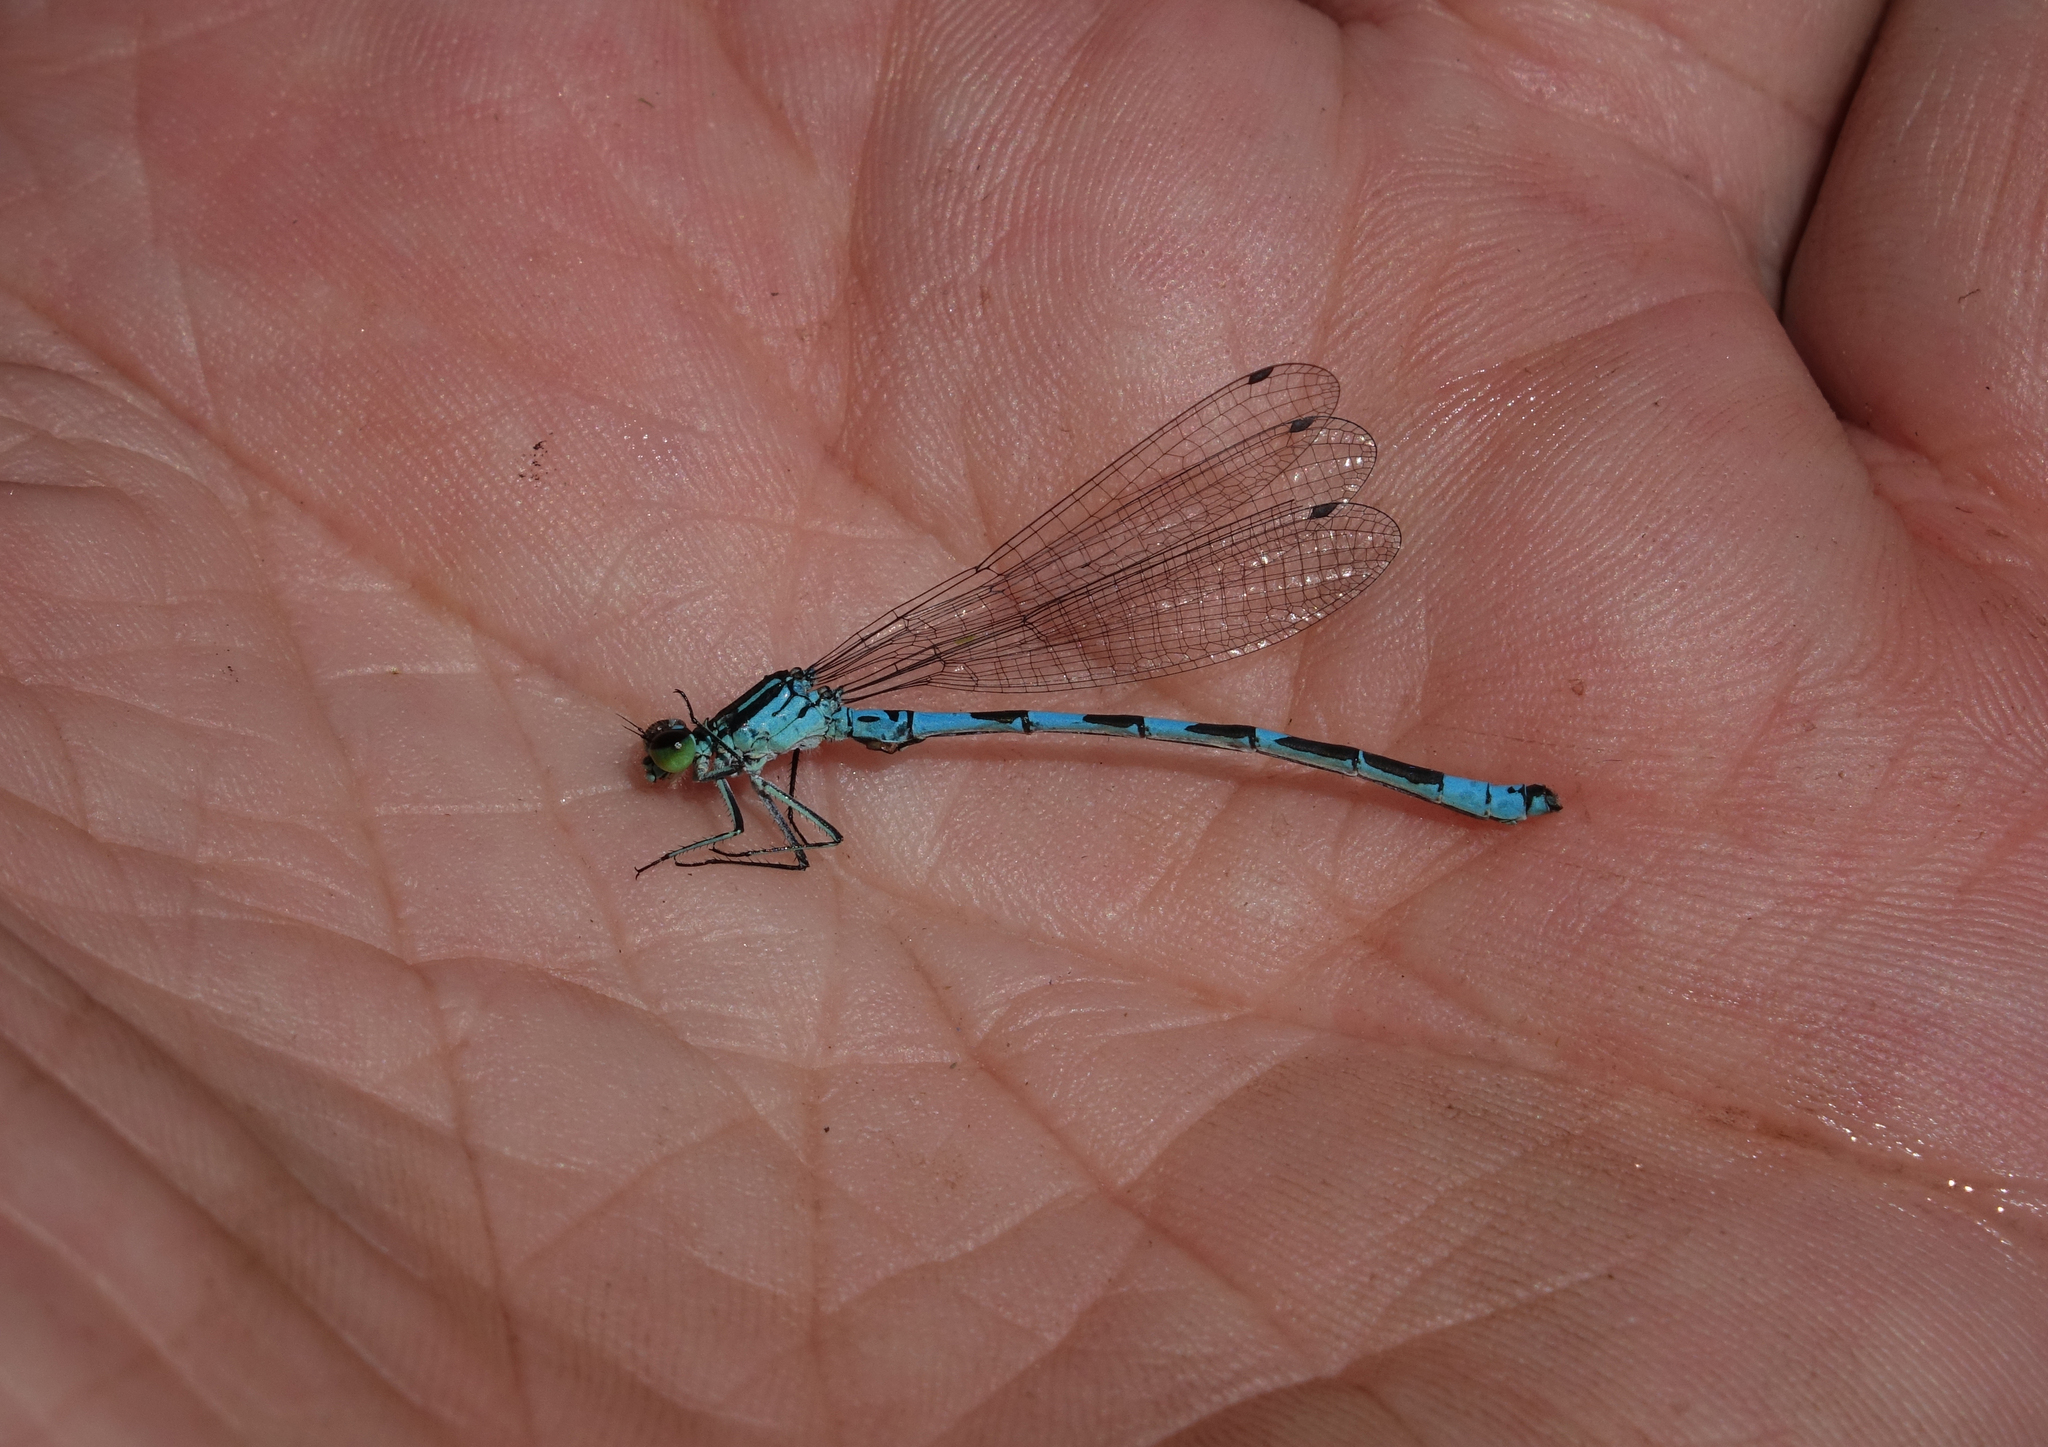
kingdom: Animalia
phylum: Arthropoda
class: Insecta
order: Odonata
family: Coenagrionidae
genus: Coenagrion
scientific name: Coenagrion hastulatum
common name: Spearhead bluet
